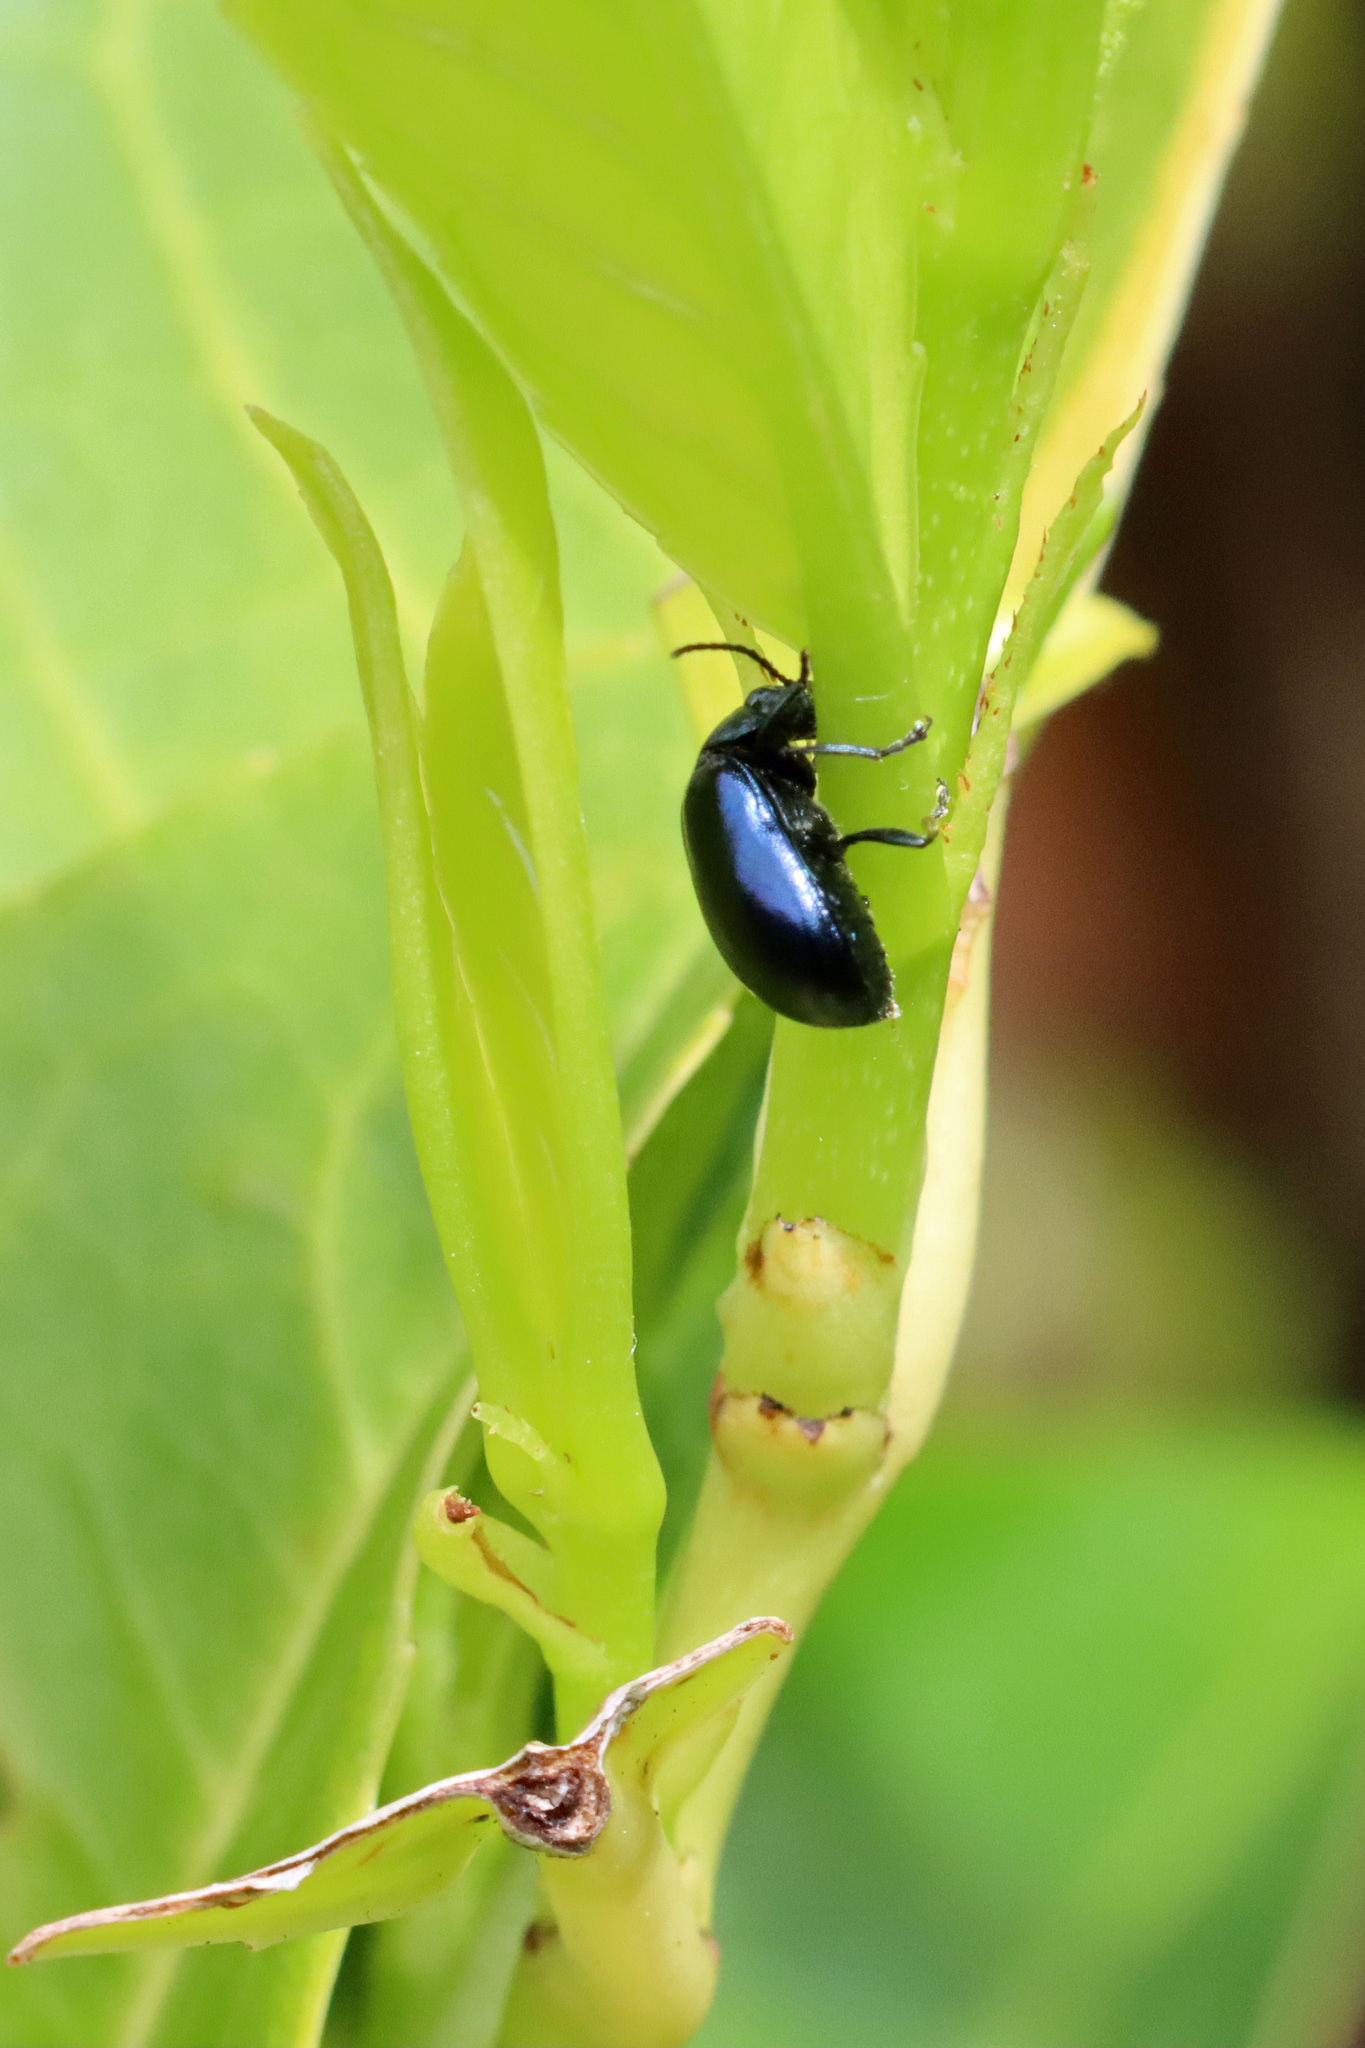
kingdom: Animalia
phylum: Arthropoda
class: Insecta
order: Coleoptera
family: Chrysomelidae
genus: Agelastica
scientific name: Agelastica alni
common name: Alder leaf beetle
